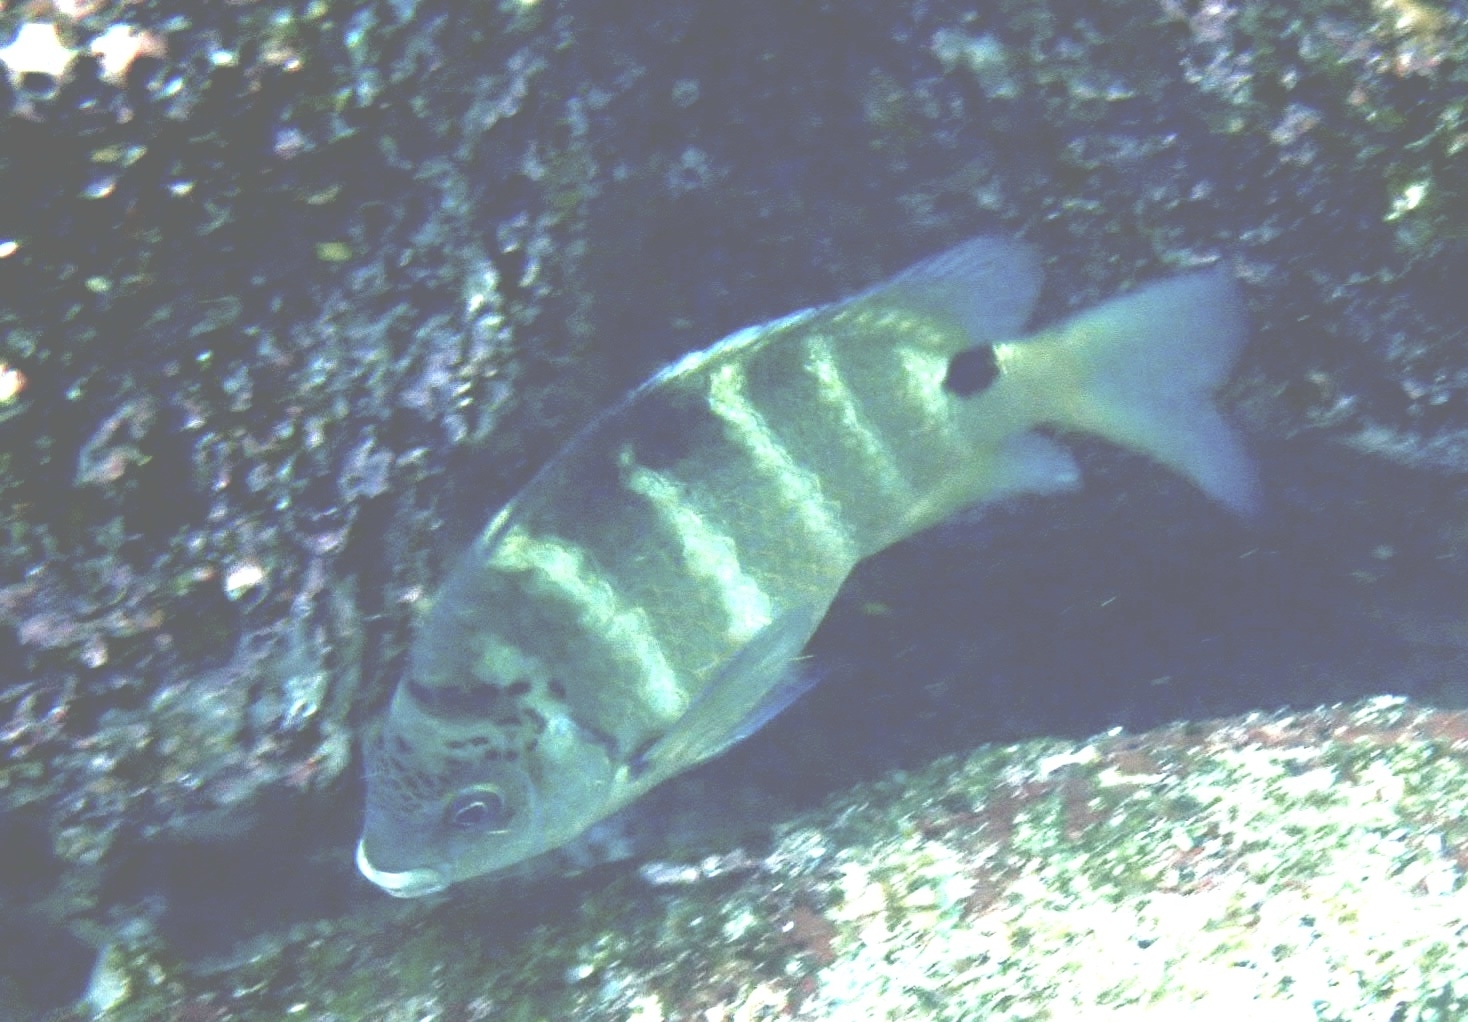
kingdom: Animalia
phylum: Chordata
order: Perciformes
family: Pomacentridae
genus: Abudefduf
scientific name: Abudefduf sordidus
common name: Blackspot sergeant
